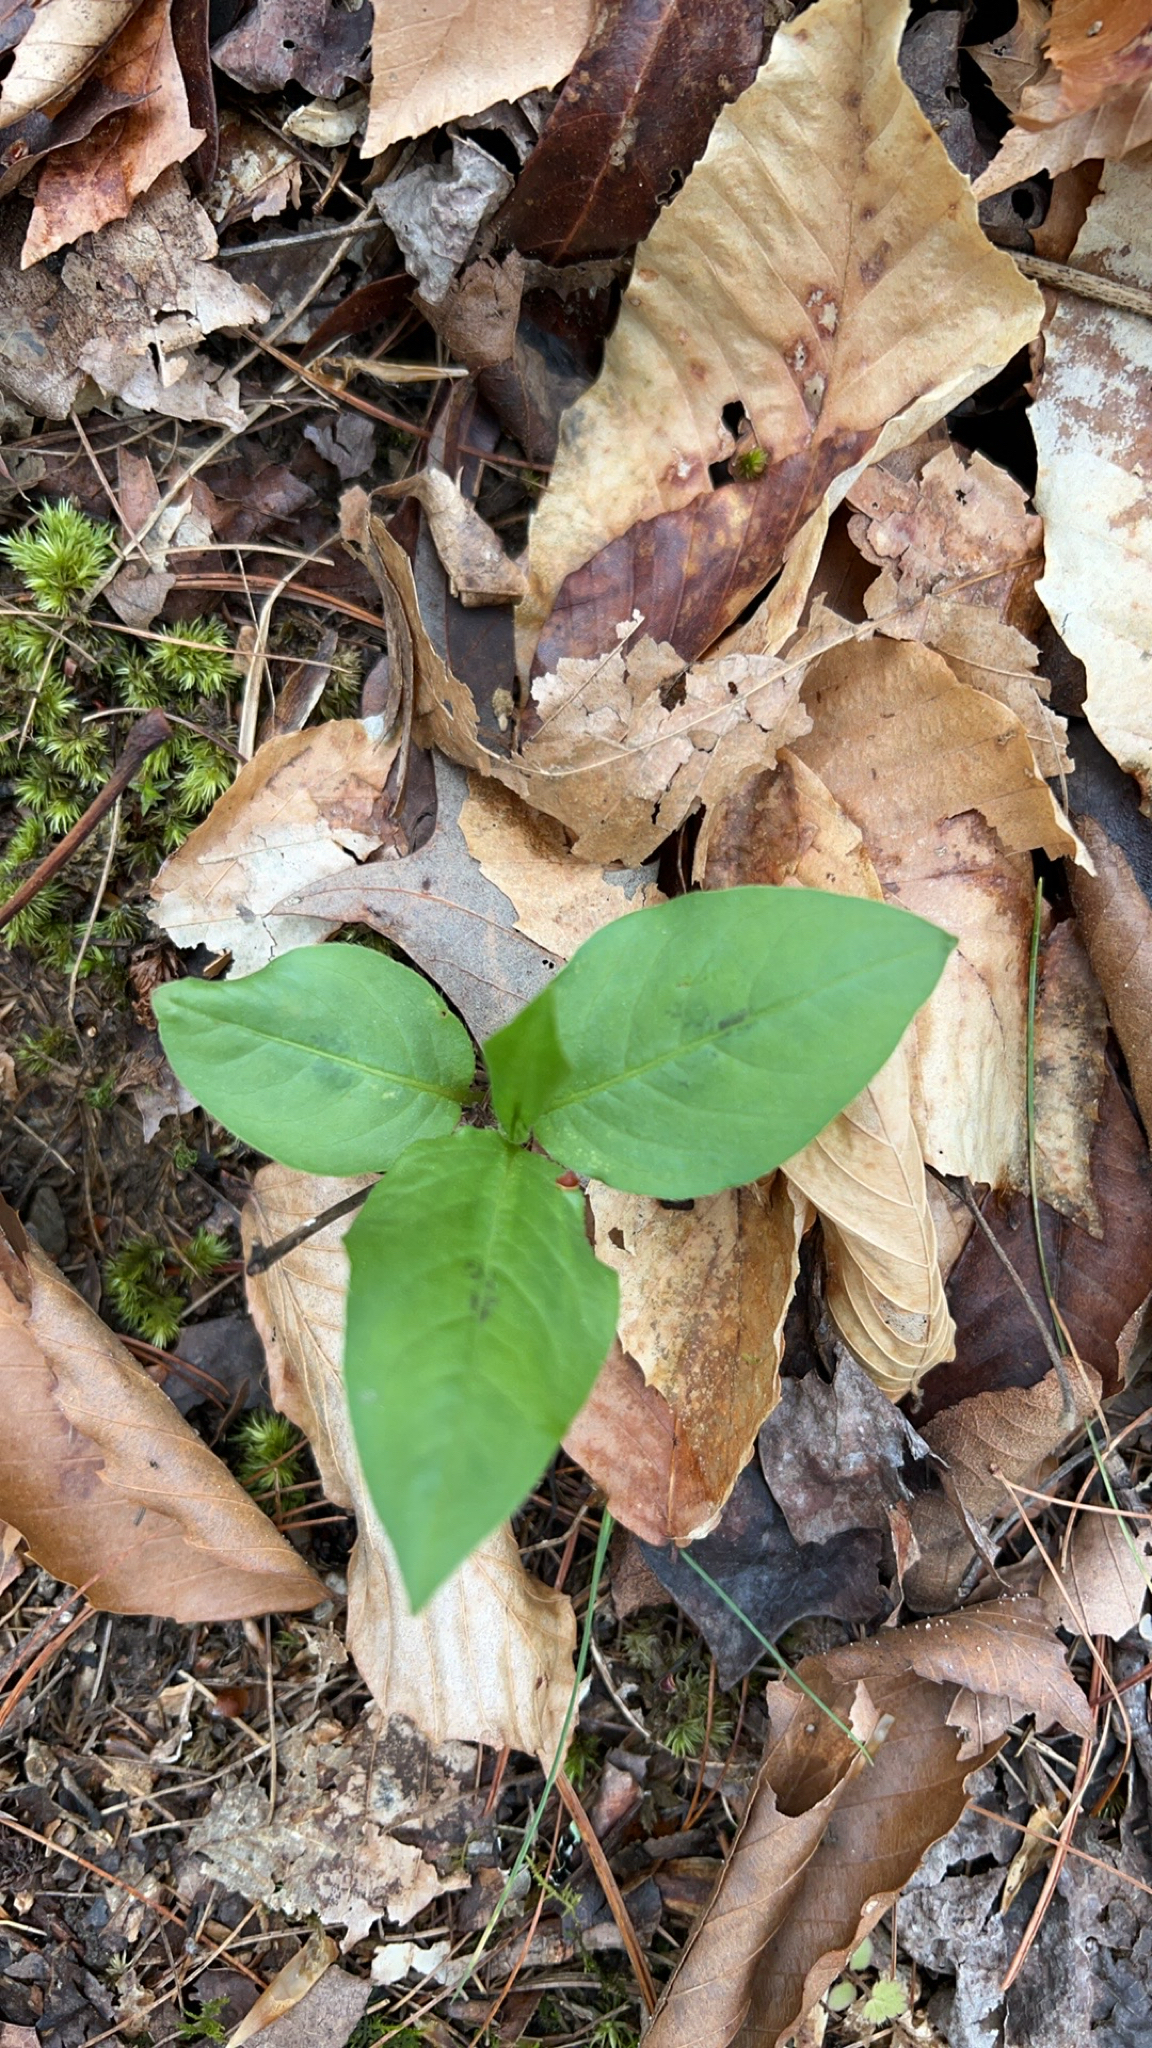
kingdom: Plantae
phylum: Tracheophyta
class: Magnoliopsida
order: Caryophyllales
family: Polygonaceae
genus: Persicaria
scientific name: Persicaria virginiana
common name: Jumpseed
